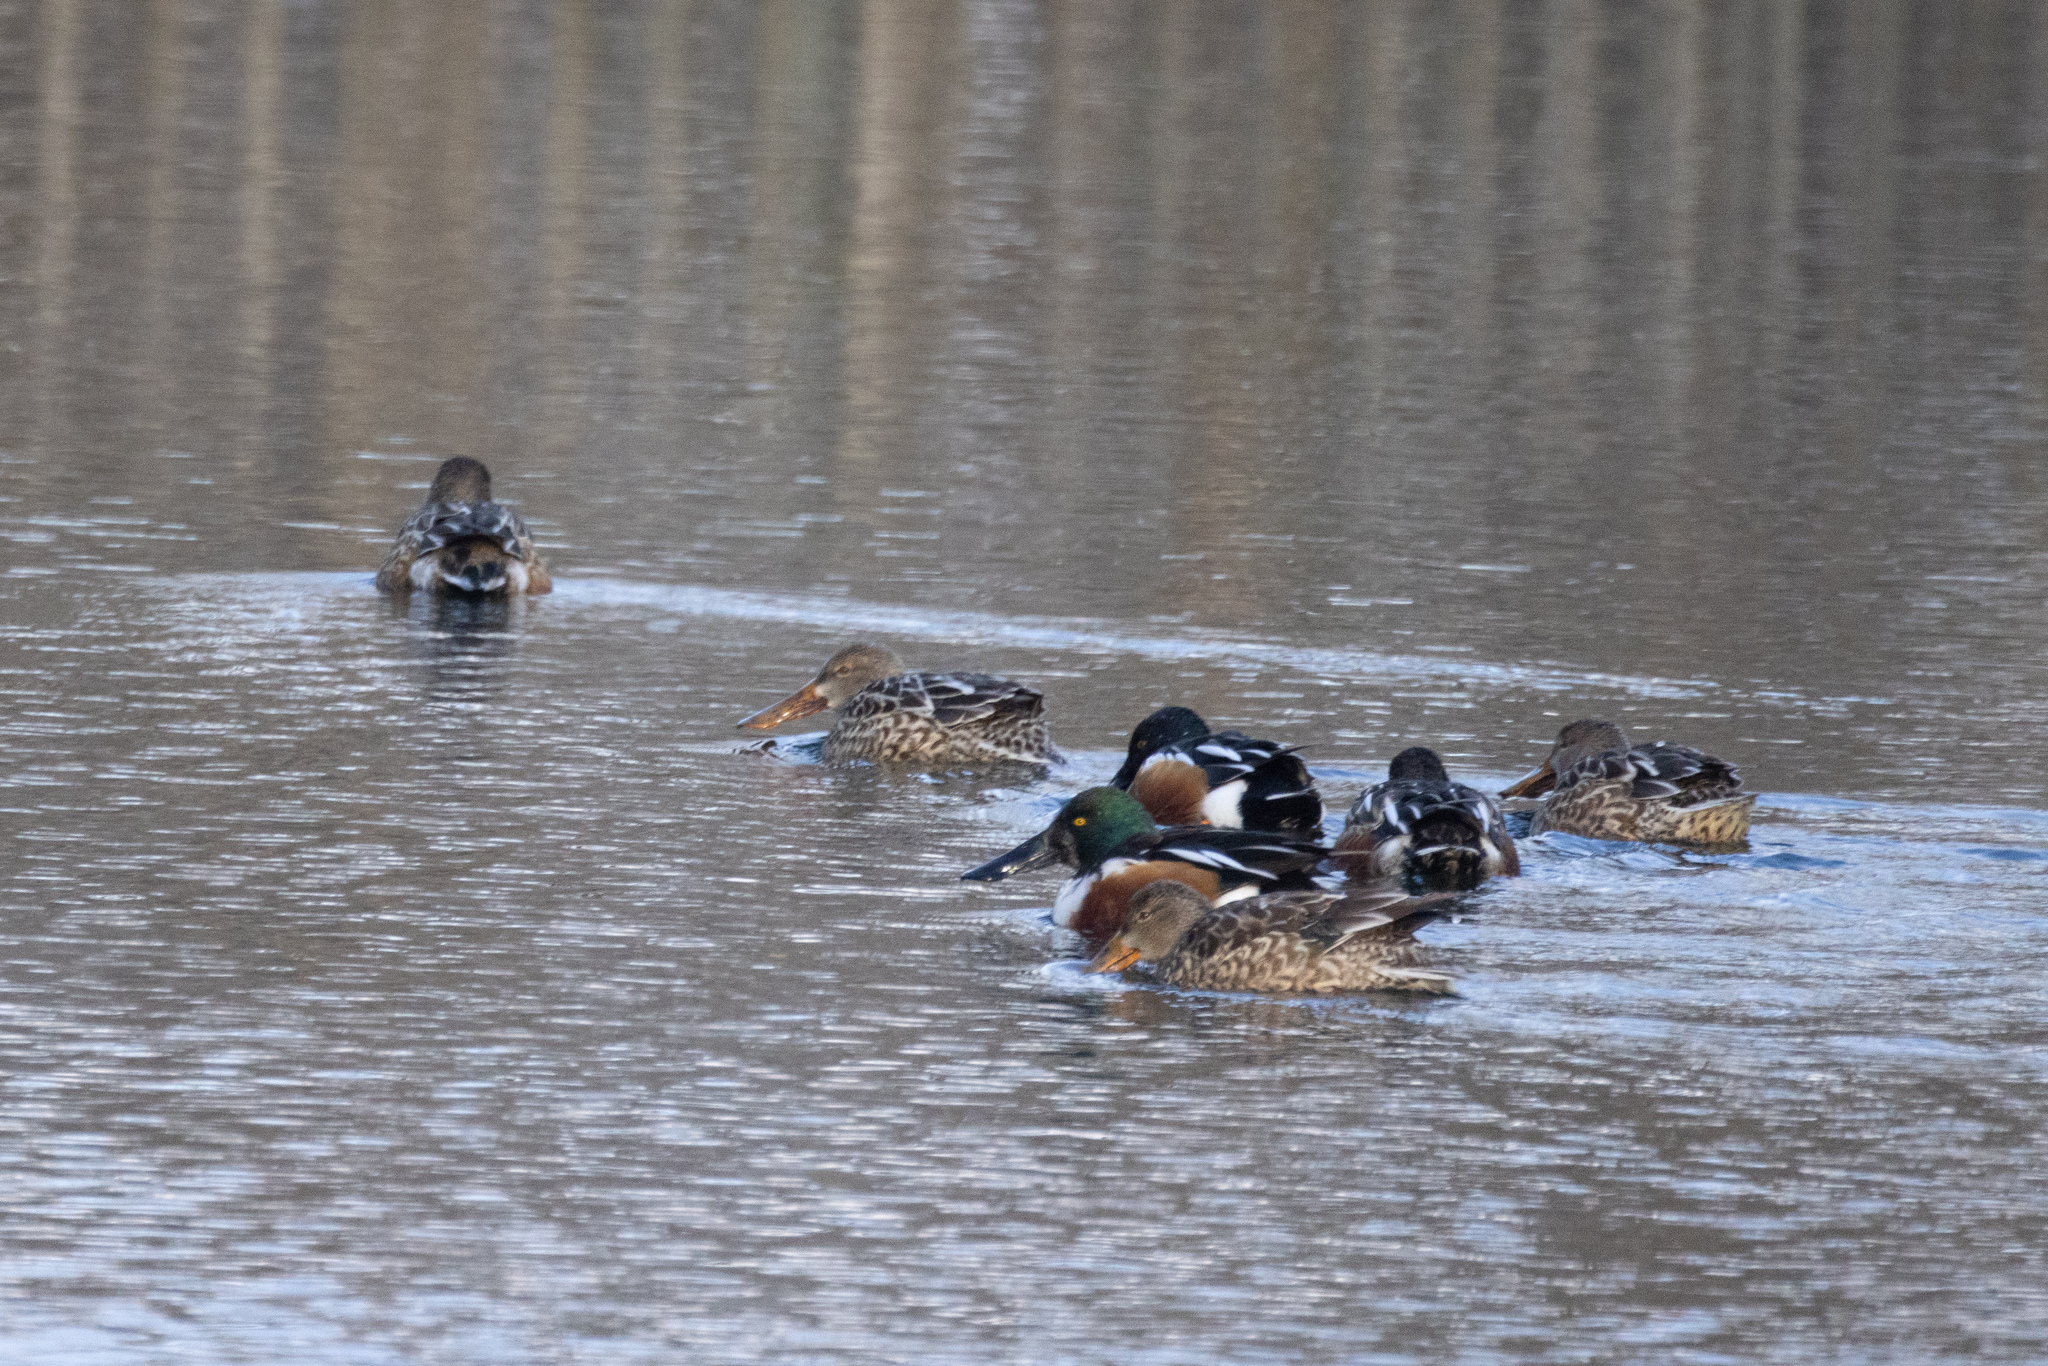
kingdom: Animalia
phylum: Chordata
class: Aves
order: Anseriformes
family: Anatidae
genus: Spatula
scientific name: Spatula clypeata
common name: Northern shoveler
